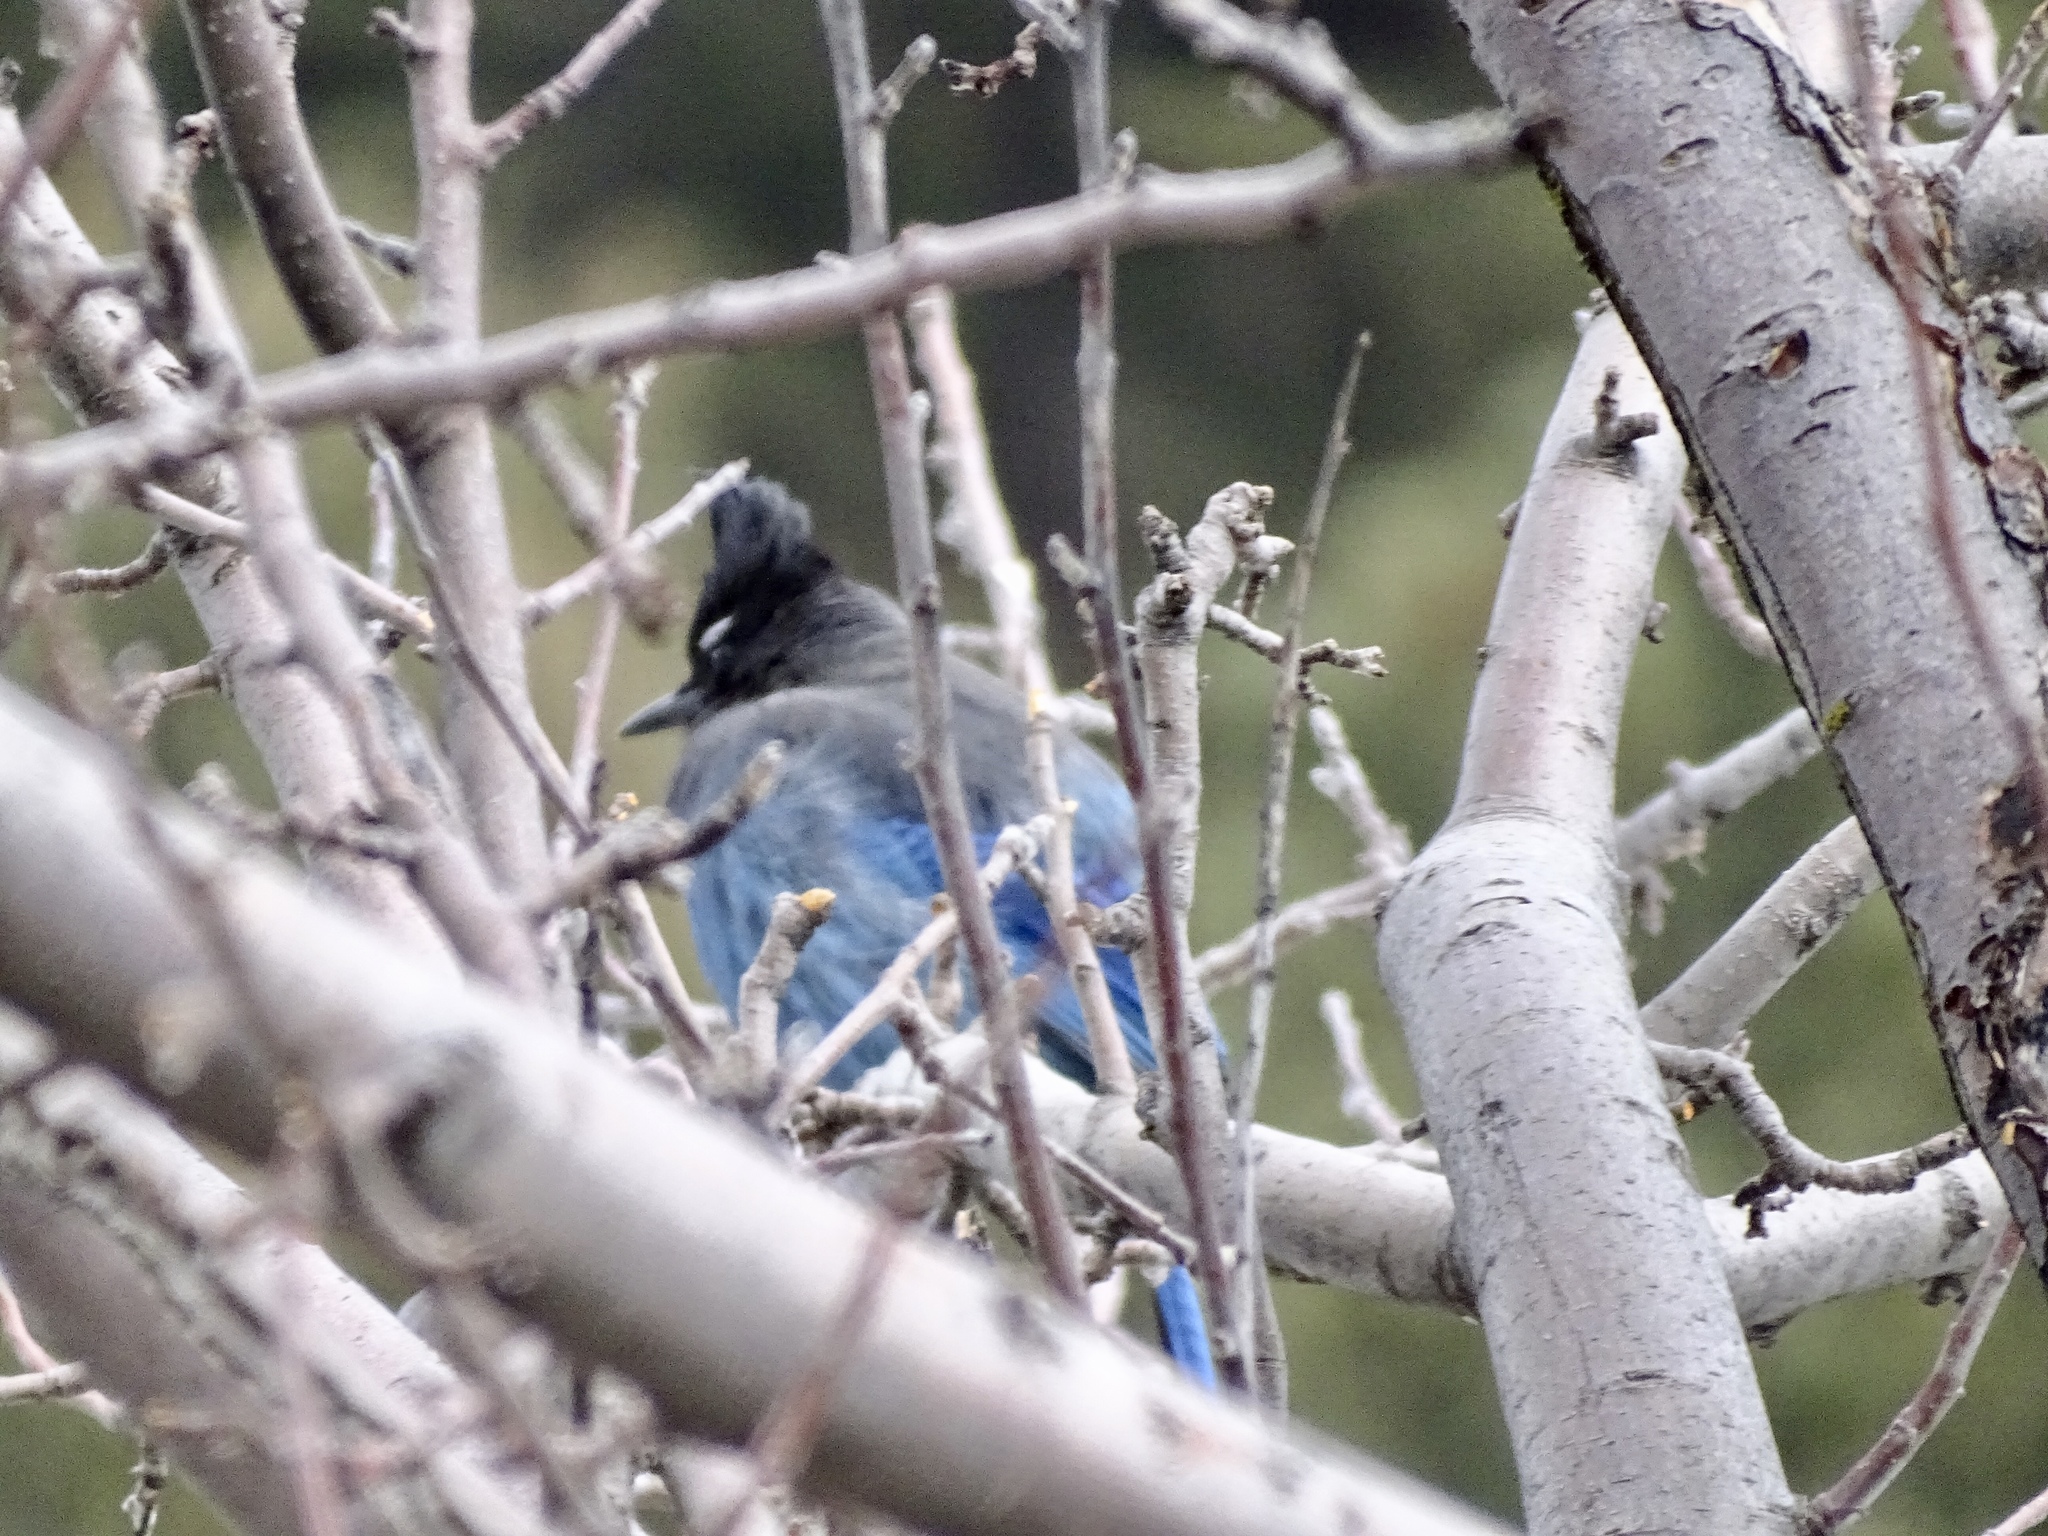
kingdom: Animalia
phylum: Chordata
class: Aves
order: Passeriformes
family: Corvidae
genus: Cyanocitta
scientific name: Cyanocitta stelleri
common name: Steller's jay
